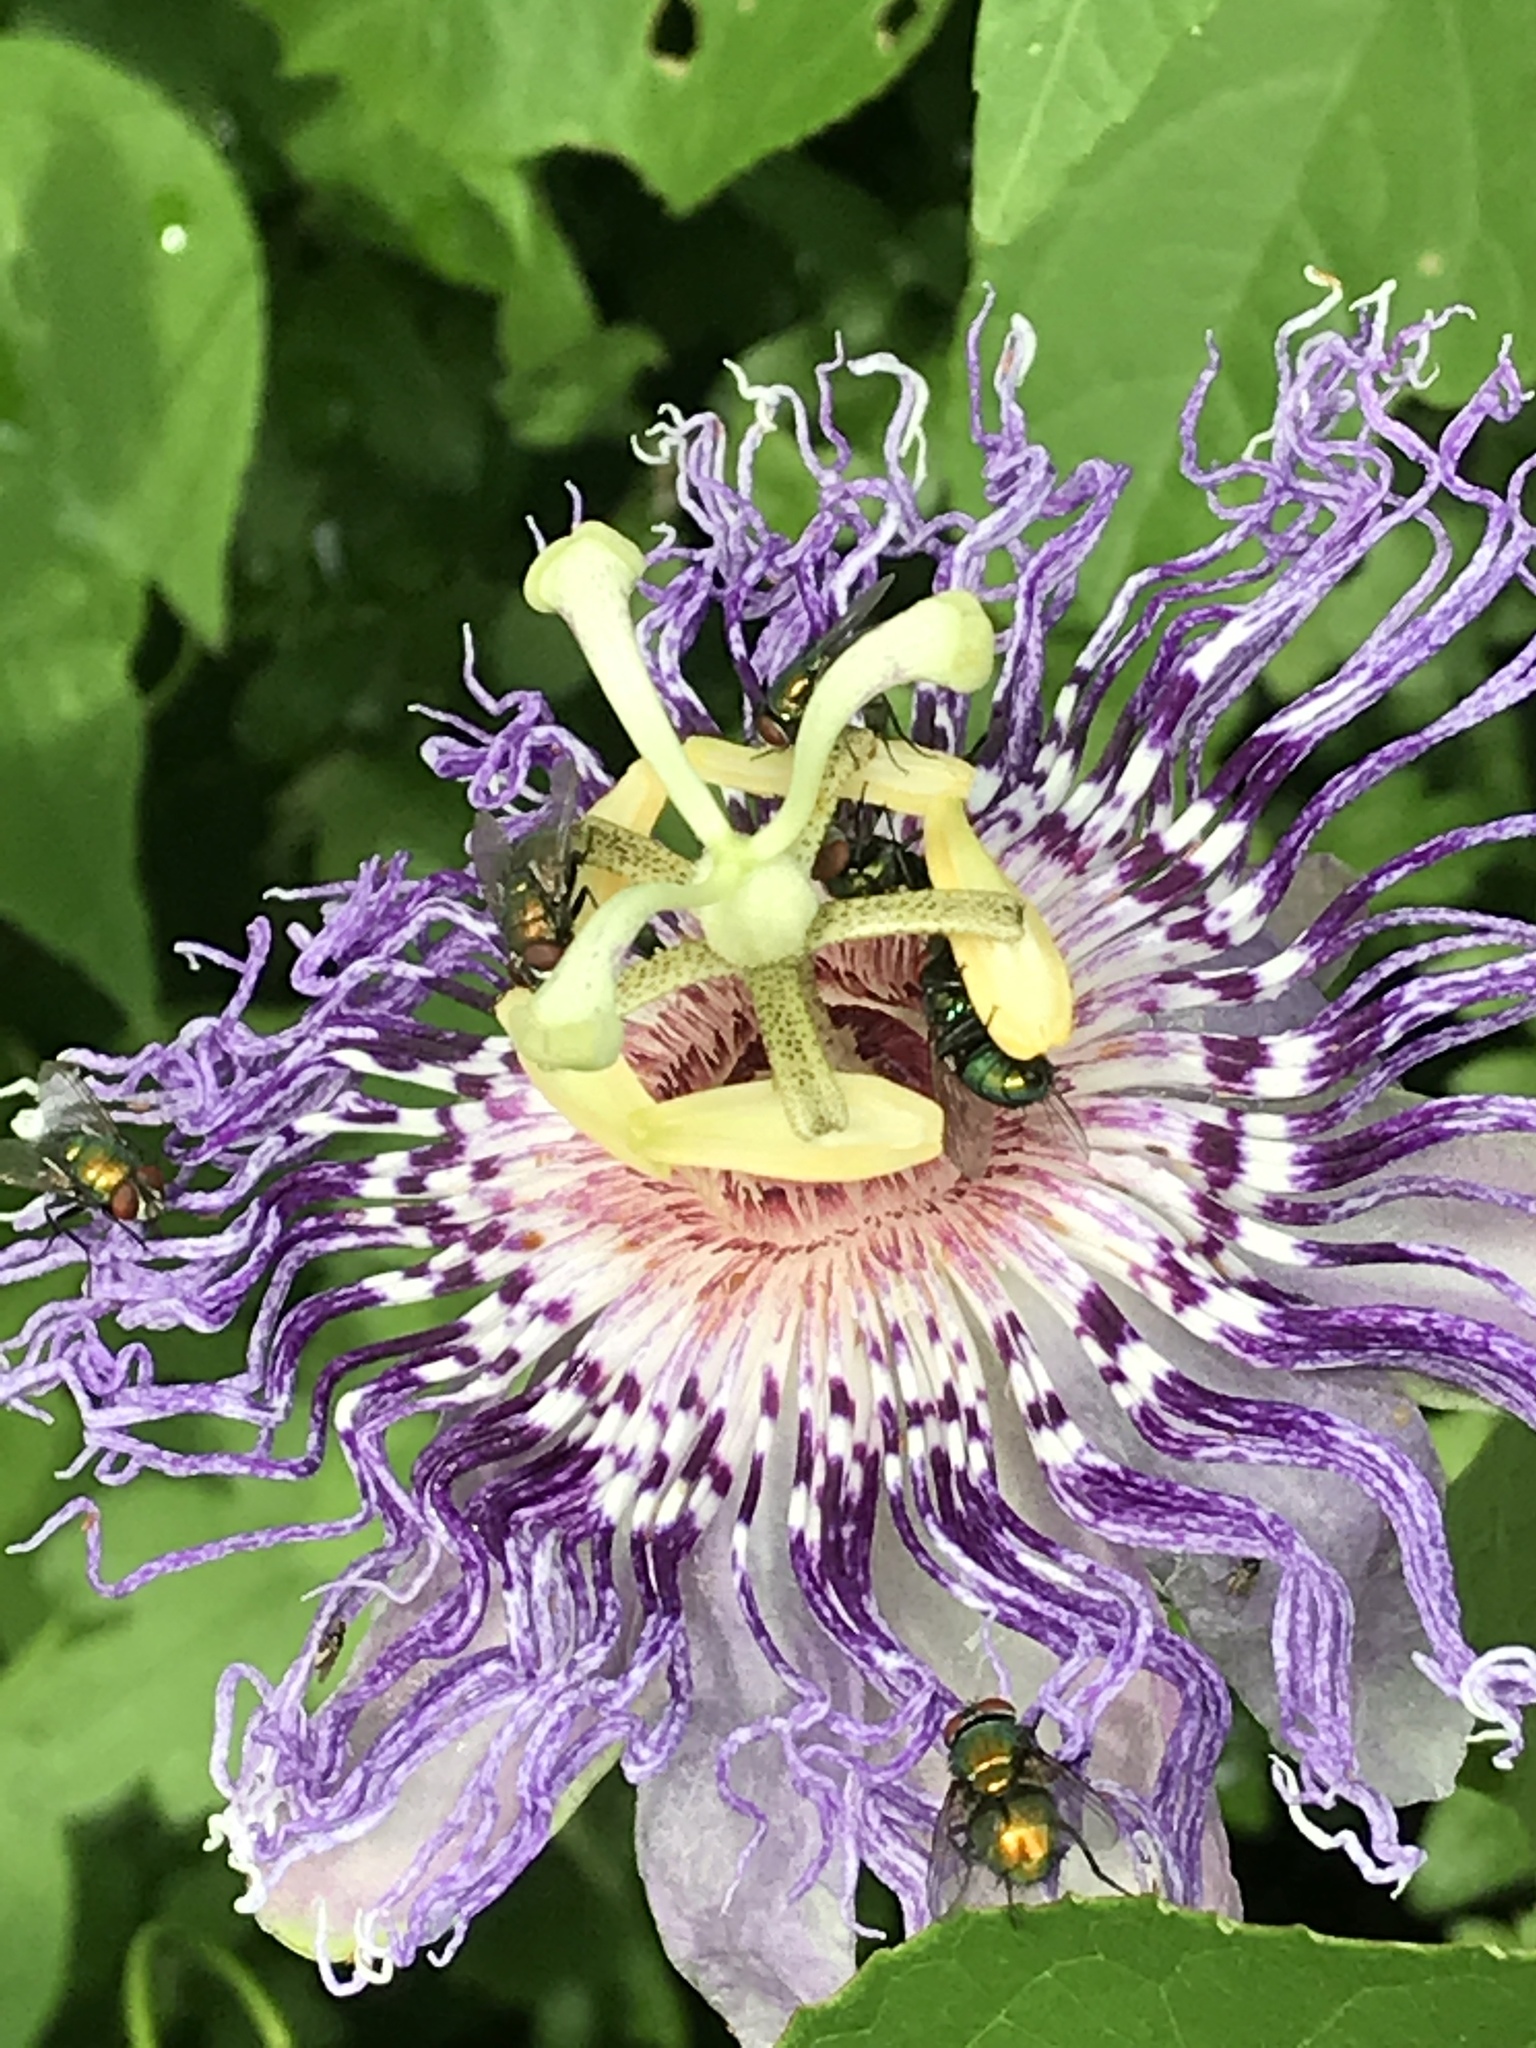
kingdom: Plantae
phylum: Tracheophyta
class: Magnoliopsida
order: Malpighiales
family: Passifloraceae
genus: Passiflora
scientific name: Passiflora incarnata
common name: Apricot-vine
